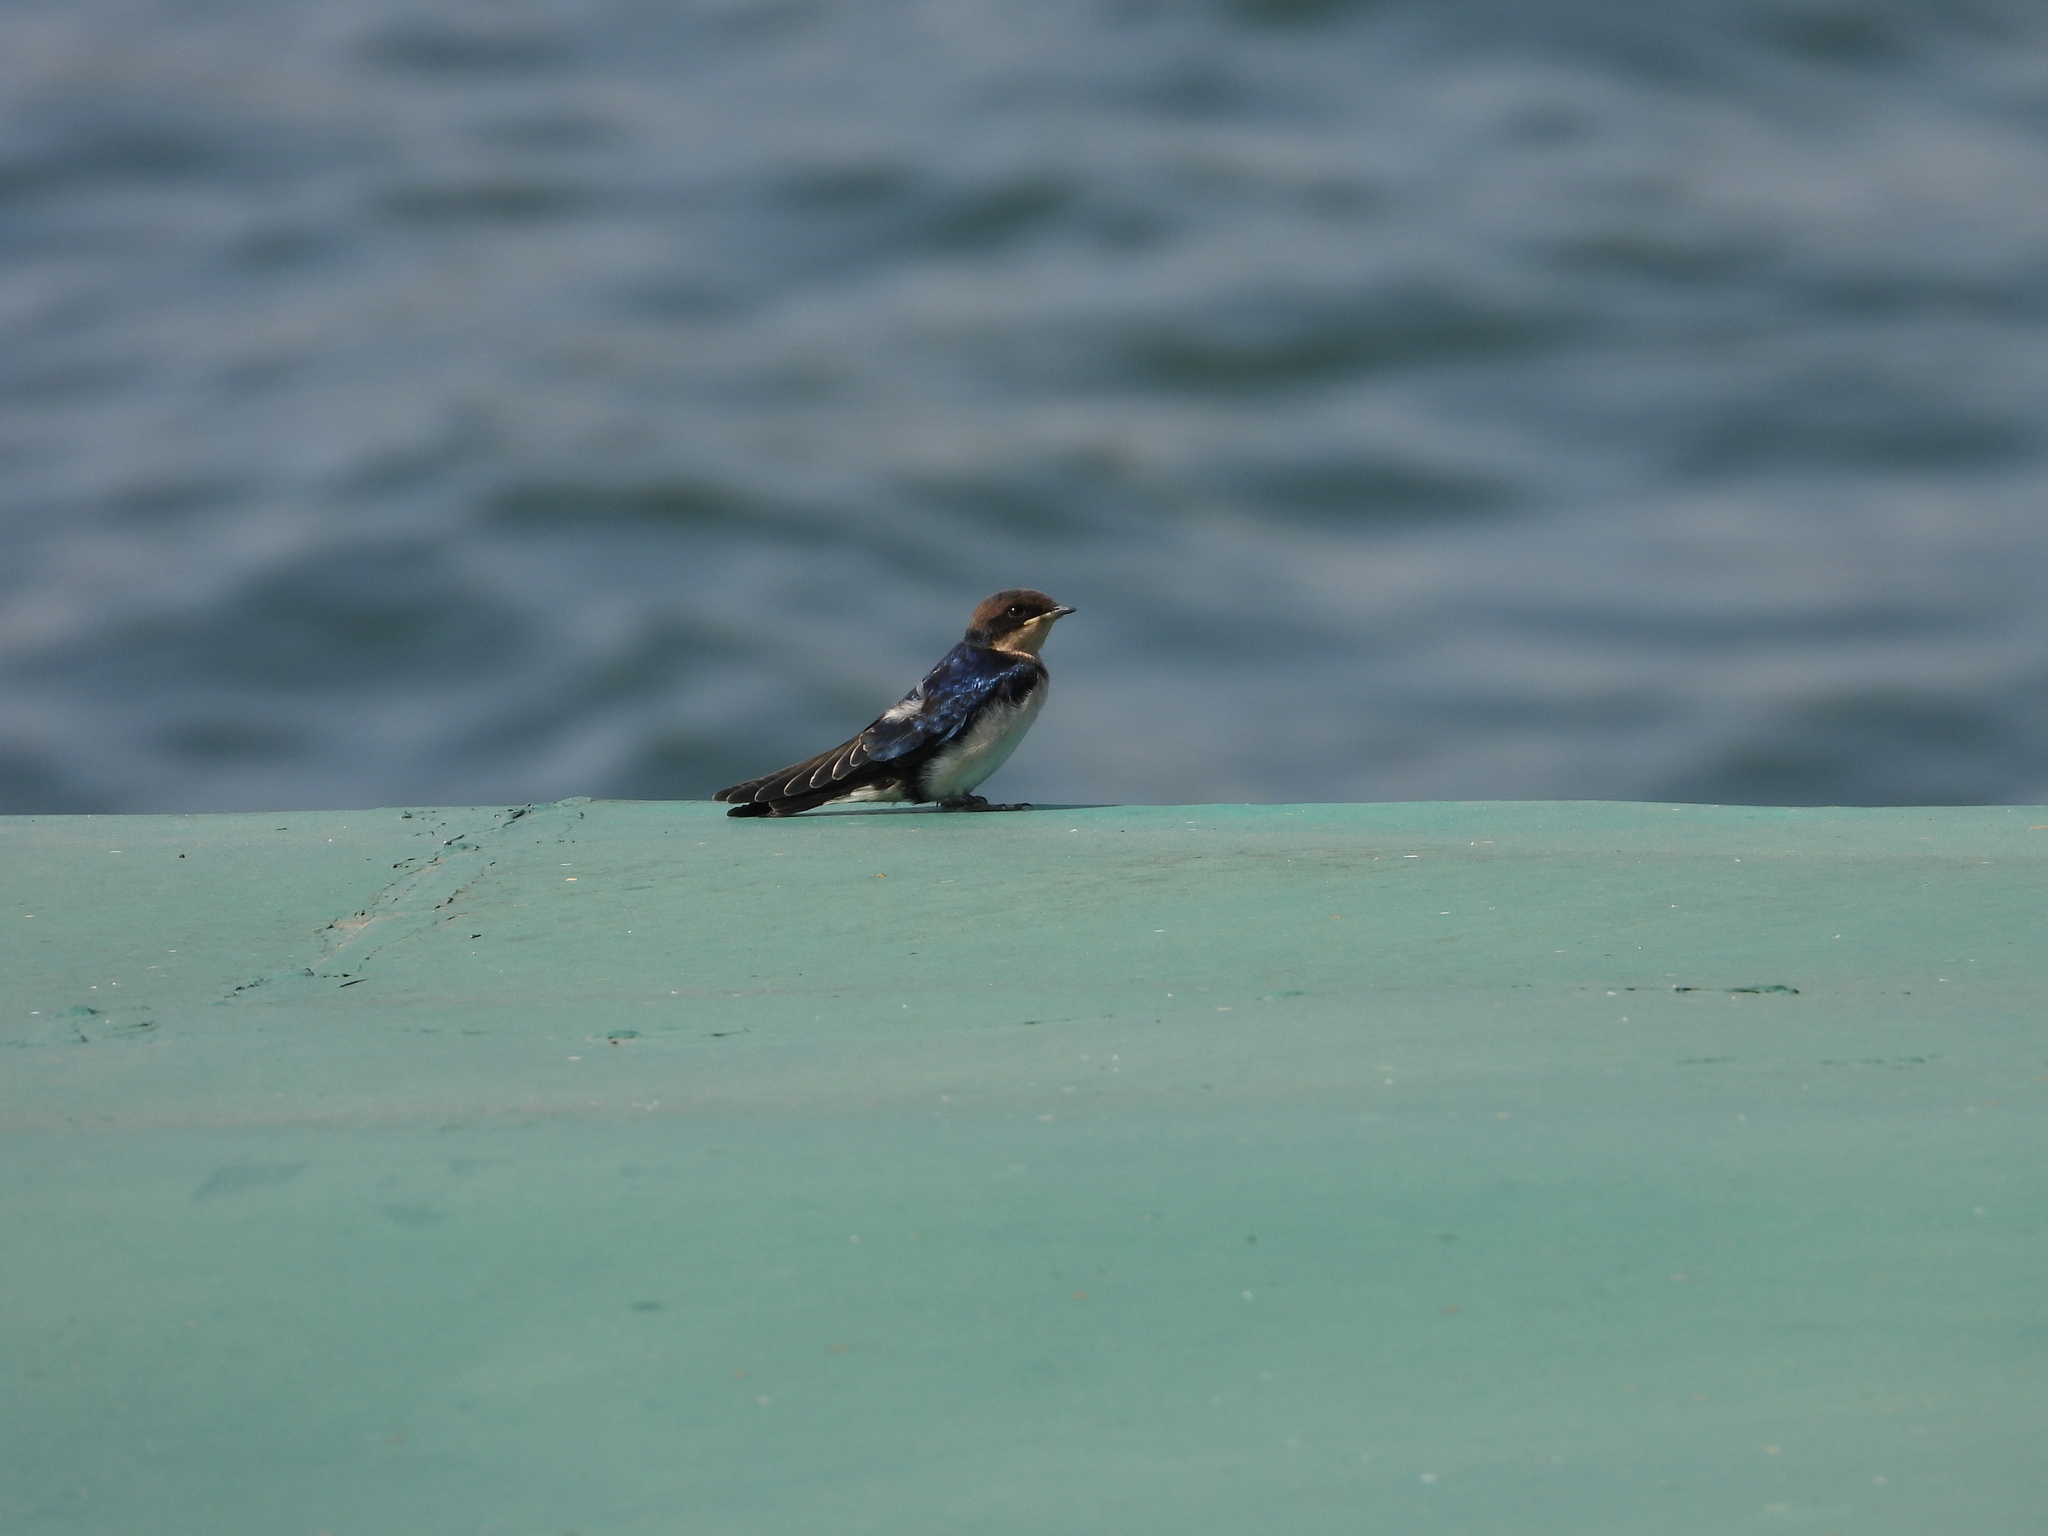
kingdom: Animalia
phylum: Chordata
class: Aves
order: Passeriformes
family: Hirundinidae
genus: Hirundo
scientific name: Hirundo smithii
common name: Wire-tailed swallow
